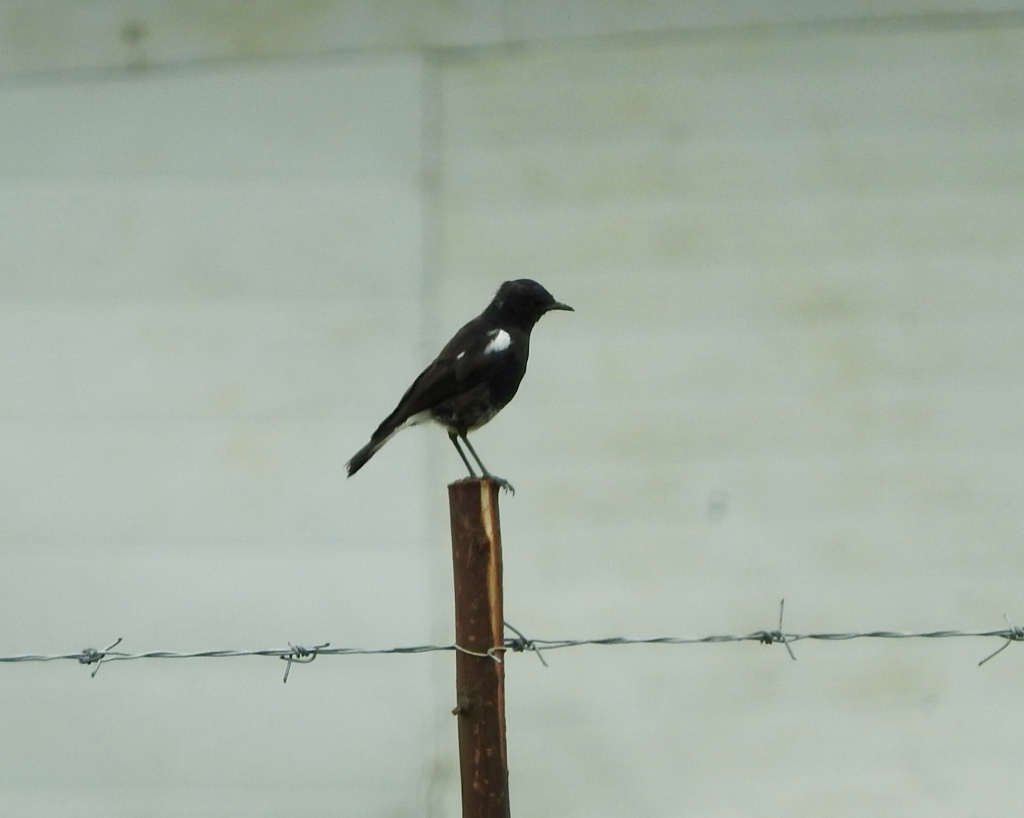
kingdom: Animalia
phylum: Chordata
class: Aves
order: Passeriformes
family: Muscicapidae
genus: Oenanthe
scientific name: Oenanthe monticola
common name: Mountain wheatear
